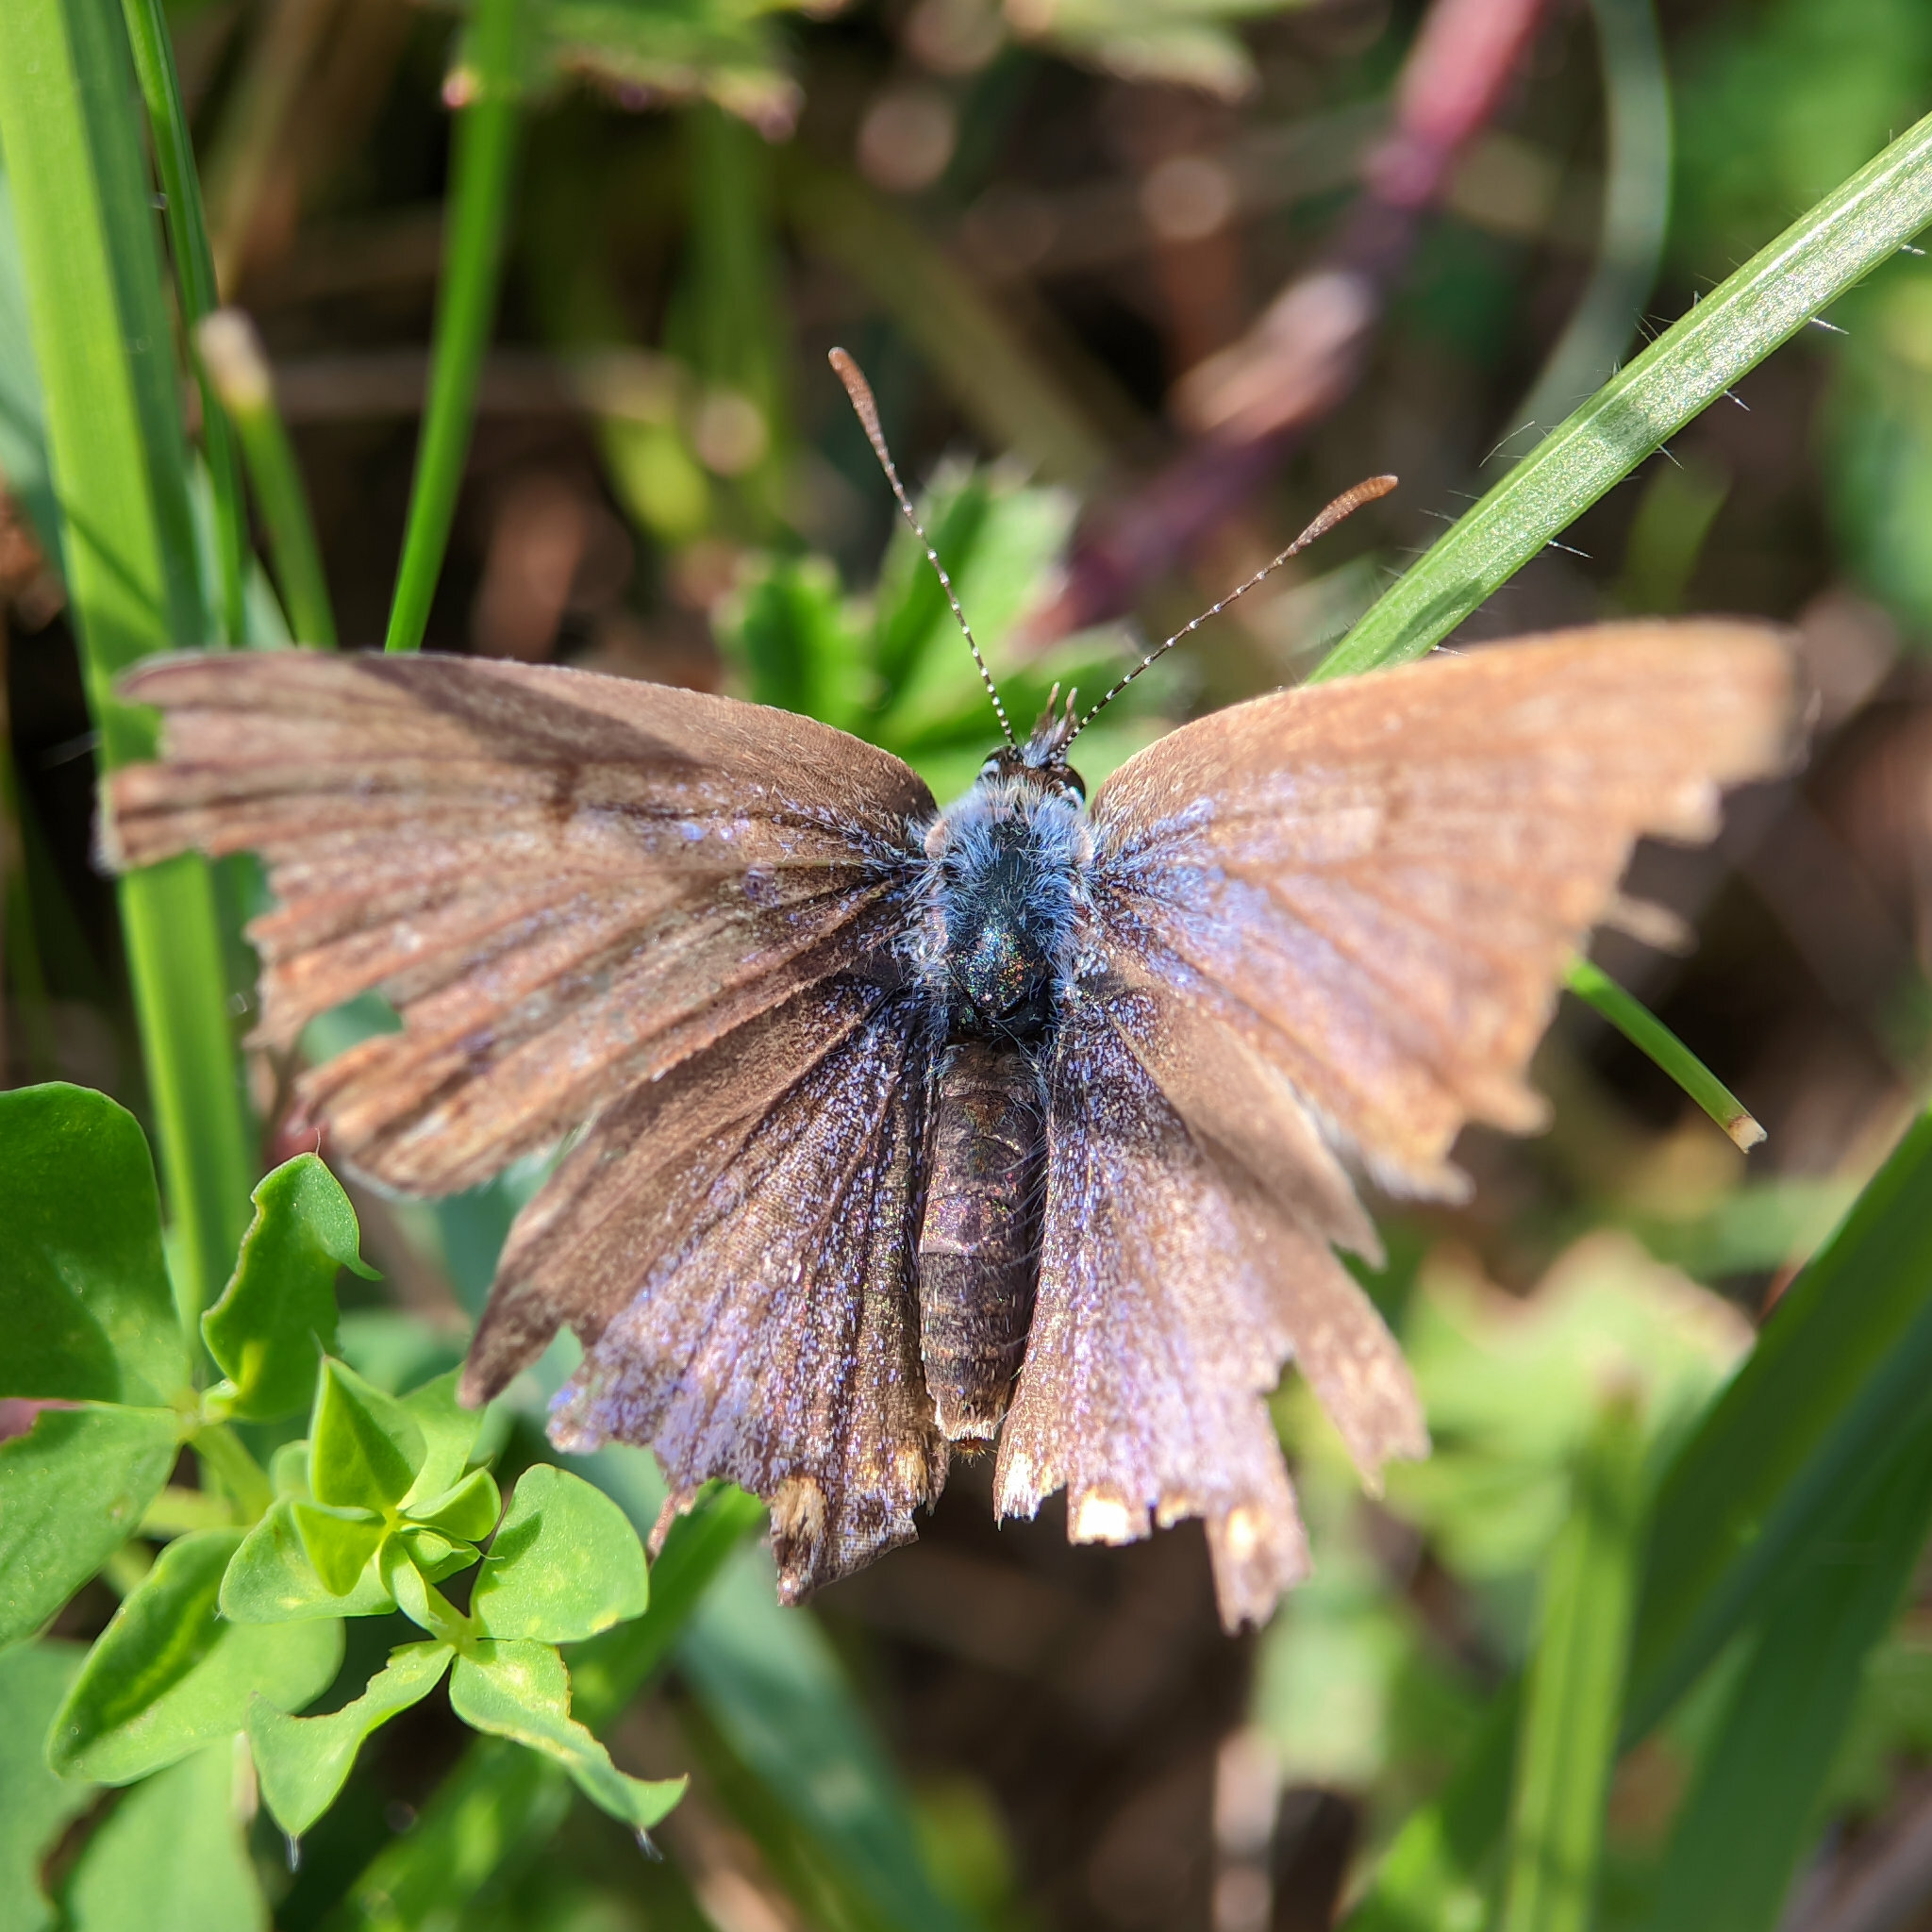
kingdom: Animalia
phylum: Arthropoda
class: Insecta
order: Lepidoptera
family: Lycaenidae
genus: Polyommatus
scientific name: Polyommatus icarus
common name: Common blue
